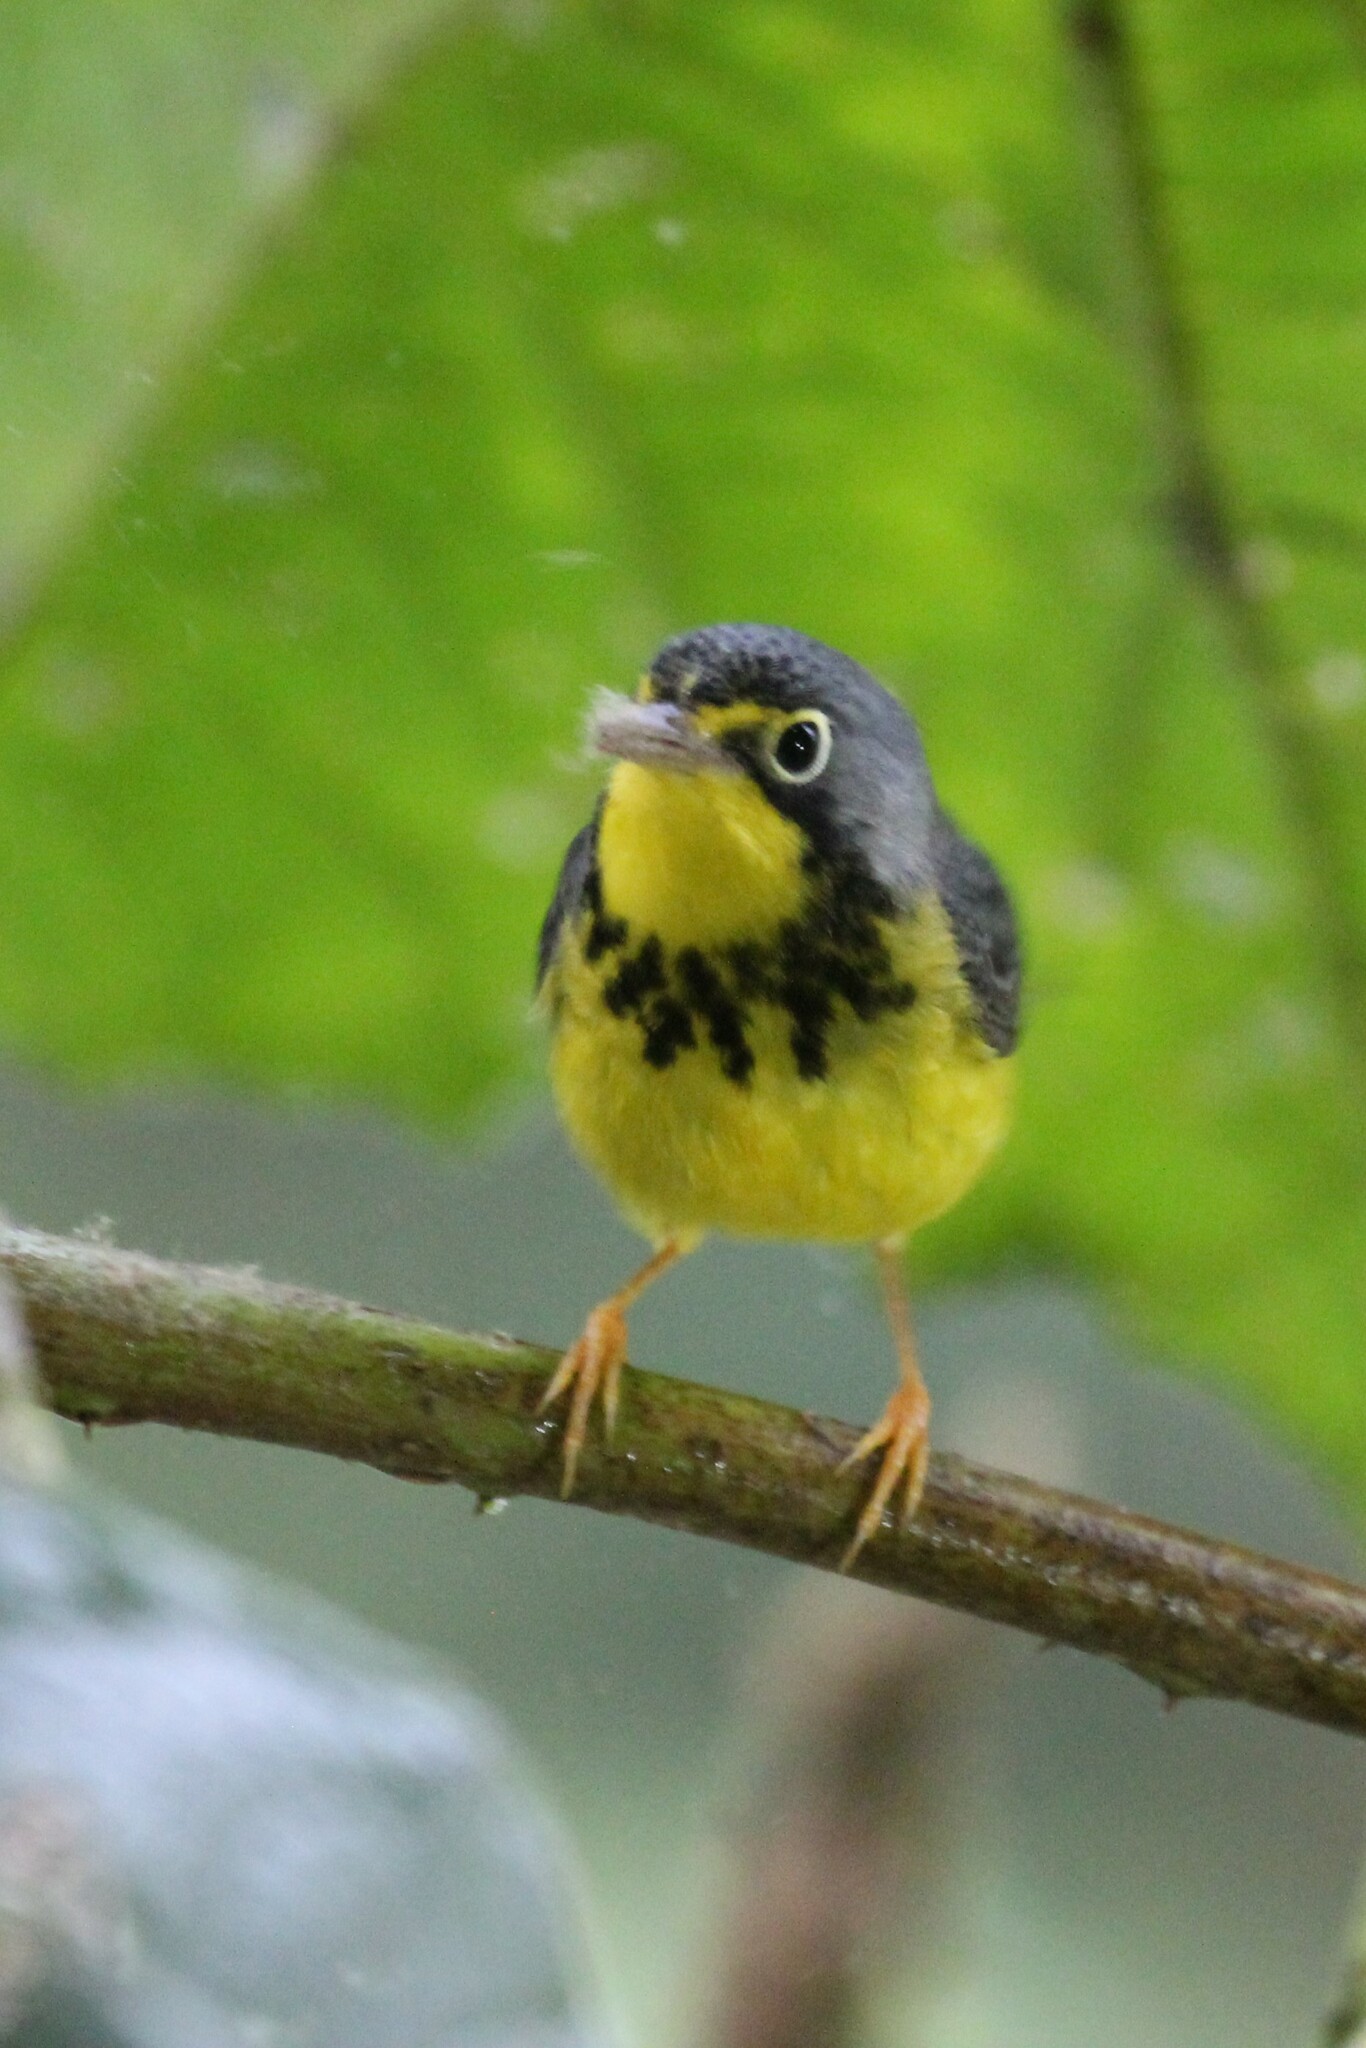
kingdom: Animalia
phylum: Chordata
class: Aves
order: Passeriformes
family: Parulidae
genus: Cardellina
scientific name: Cardellina canadensis
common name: Canada warbler
